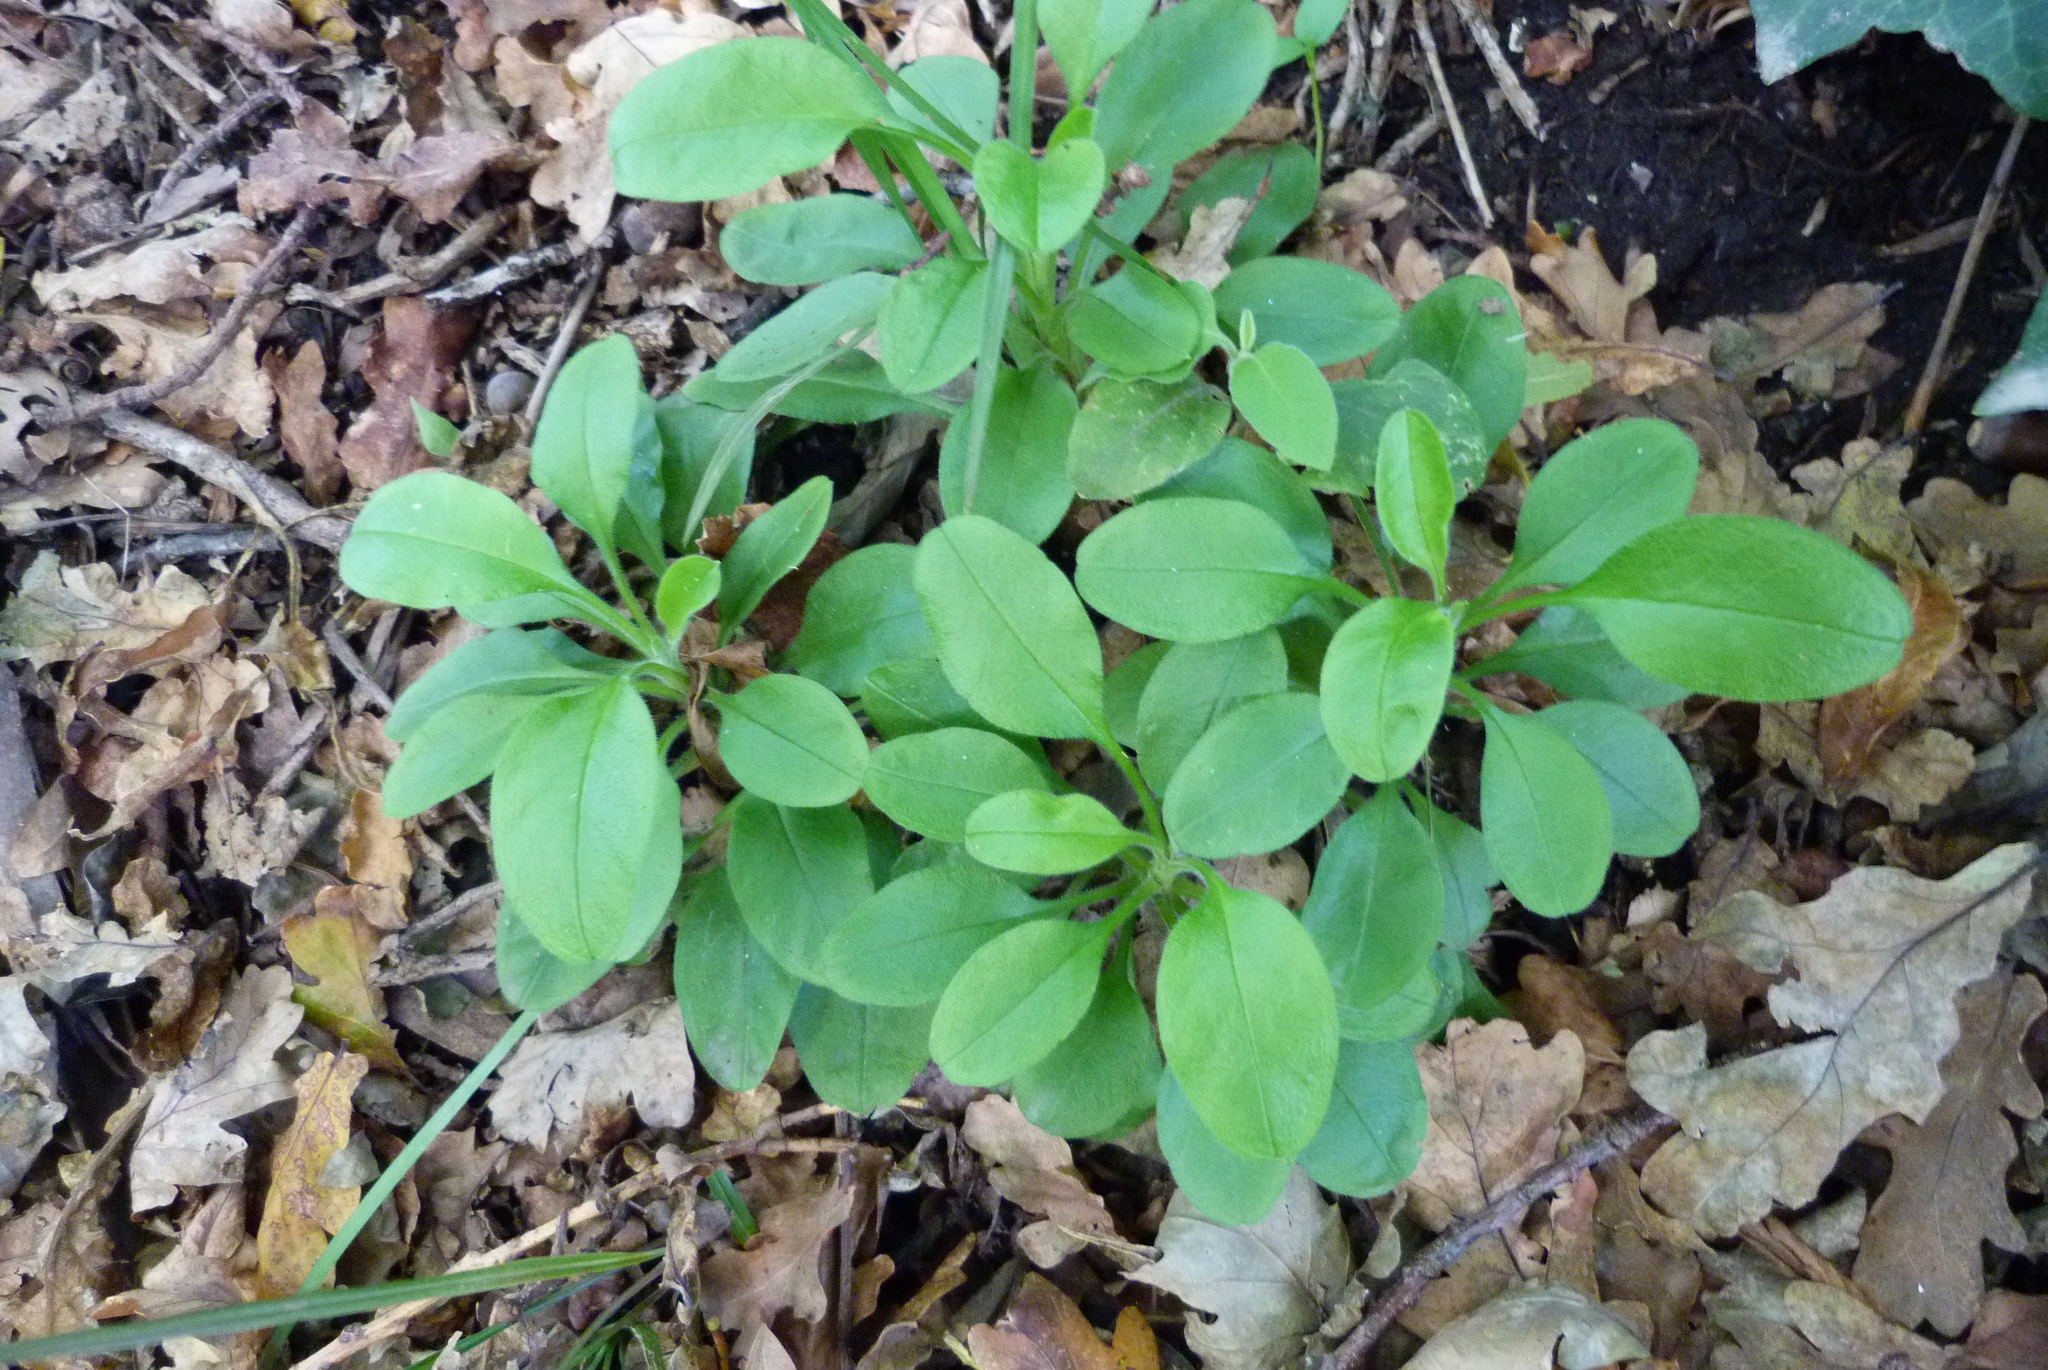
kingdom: Plantae
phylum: Tracheophyta
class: Magnoliopsida
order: Boraginales
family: Boraginaceae
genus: Myosotis
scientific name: Myosotis sylvatica
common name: Wood forget-me-not
